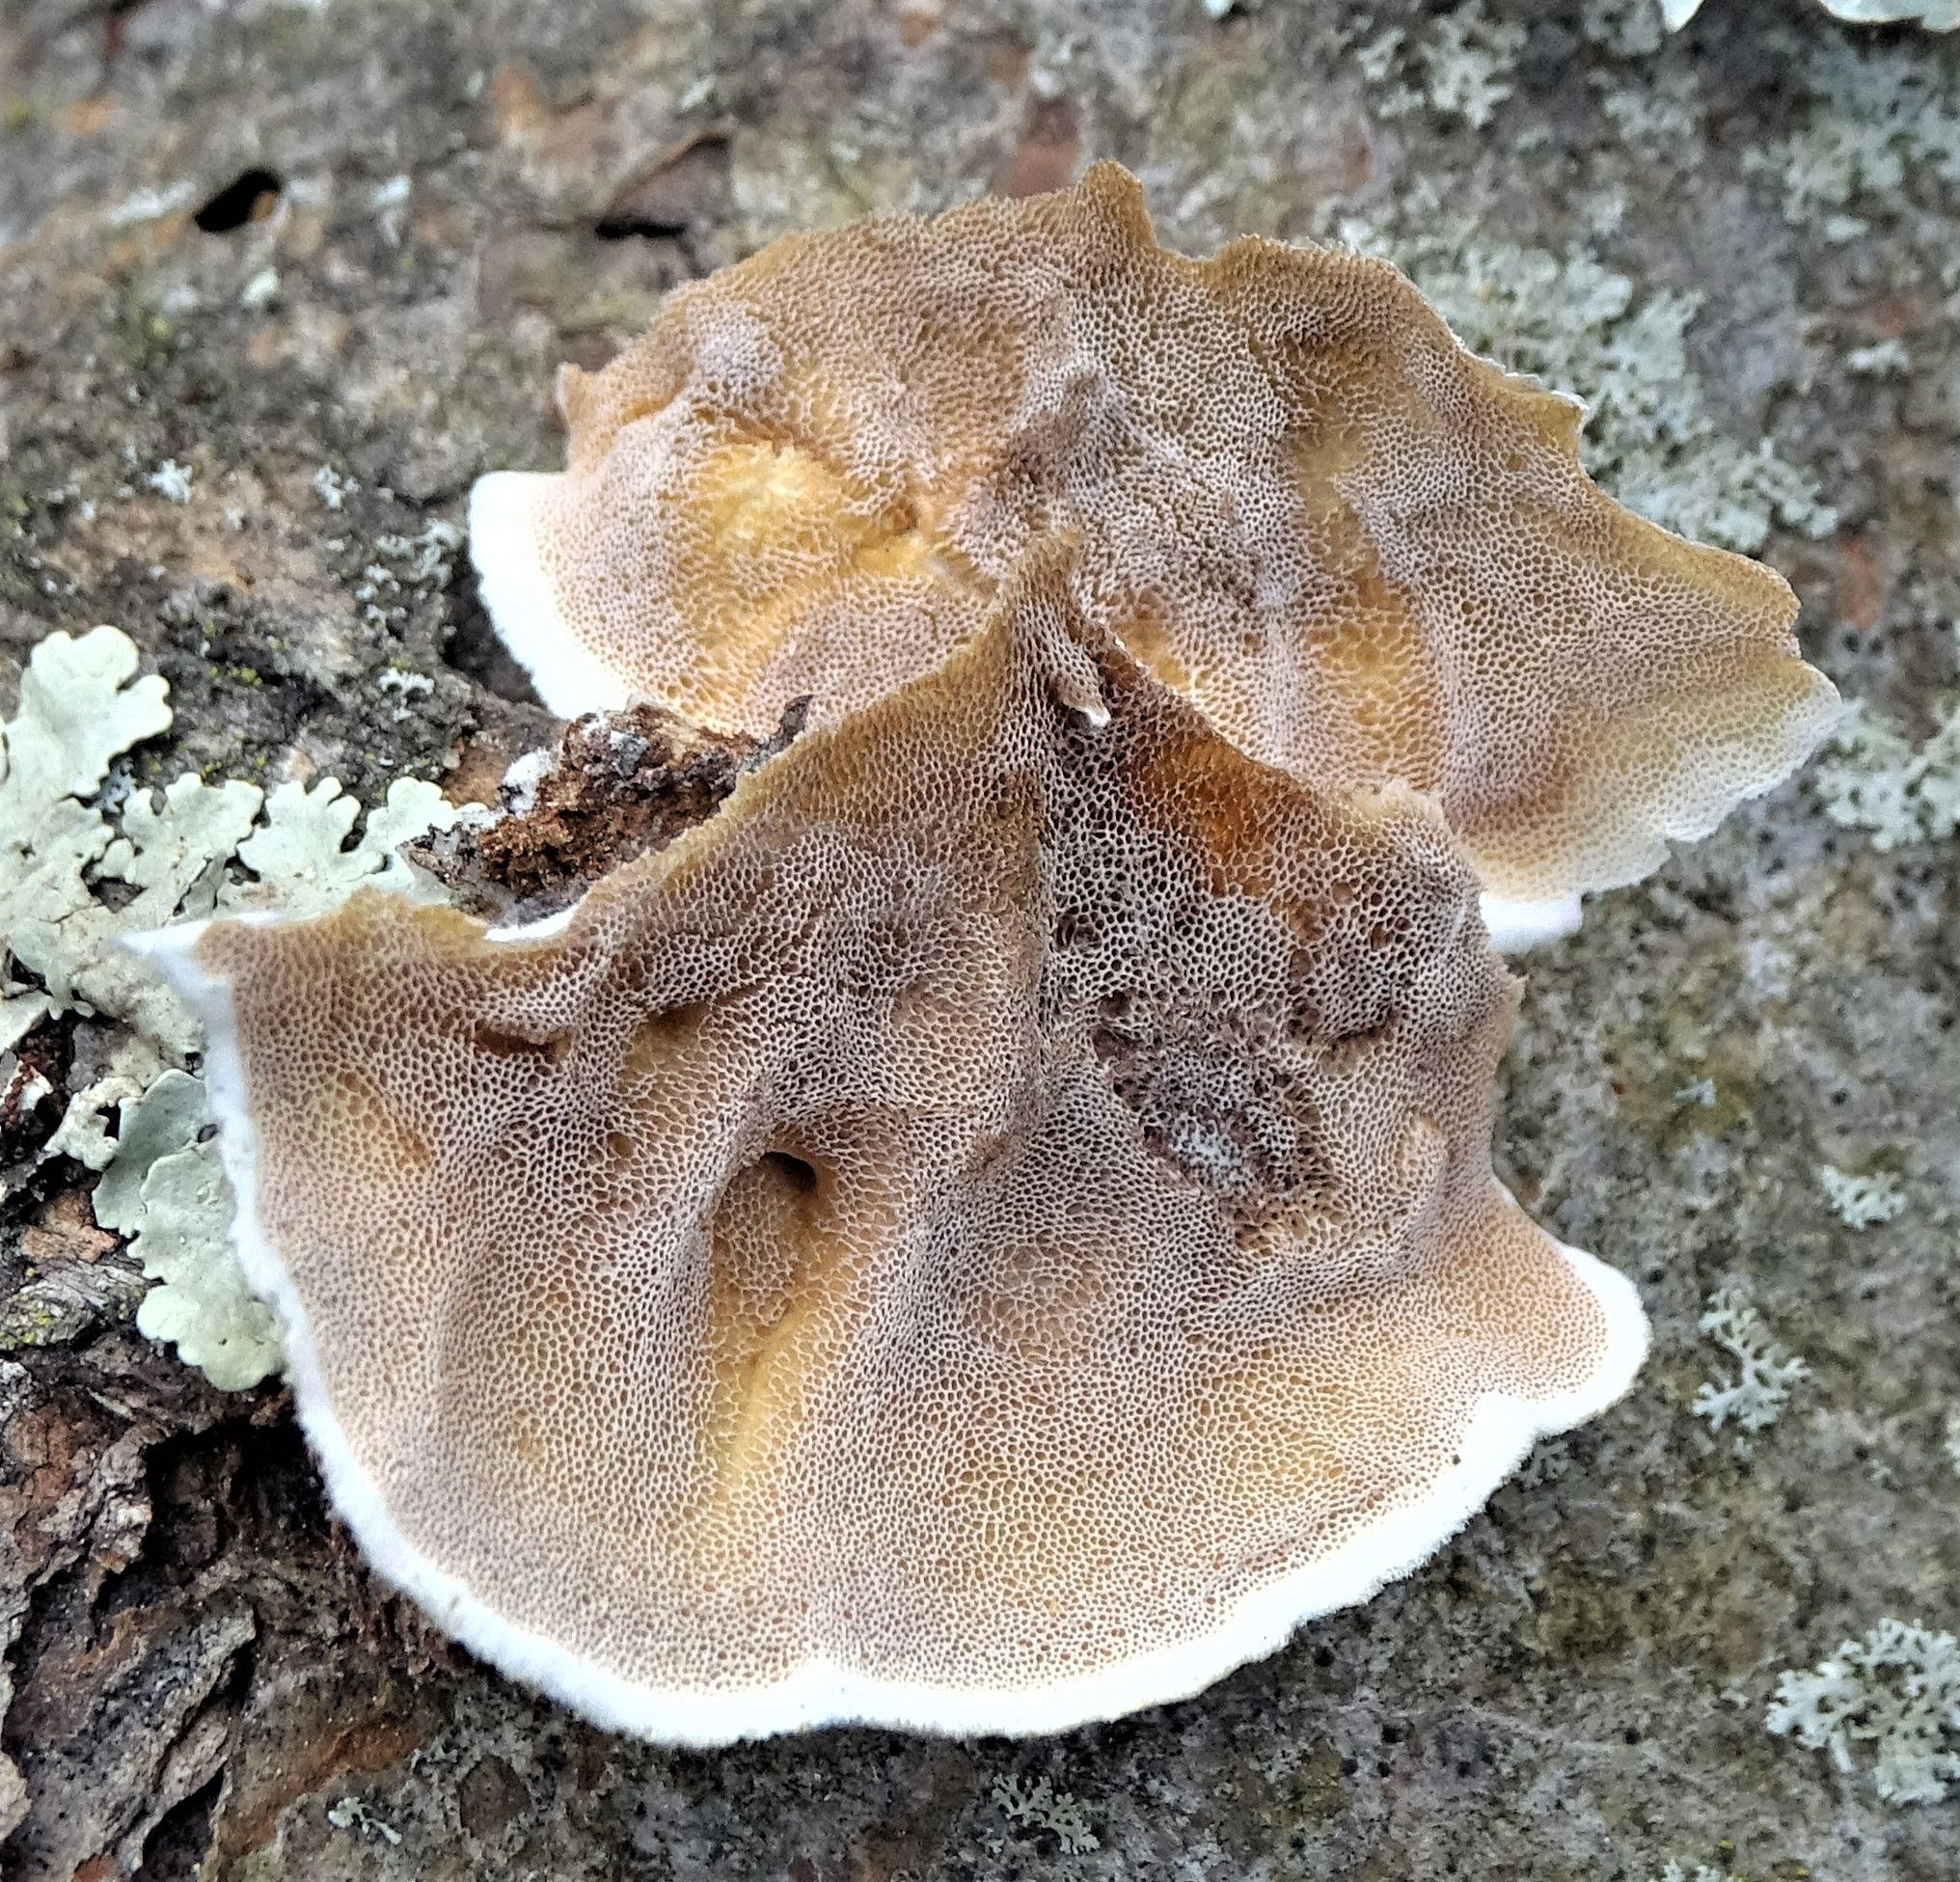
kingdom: Fungi
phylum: Basidiomycota
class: Agaricomycetes
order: Polyporales
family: Irpicaceae
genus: Vitreoporus
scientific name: Vitreoporus dichrous
